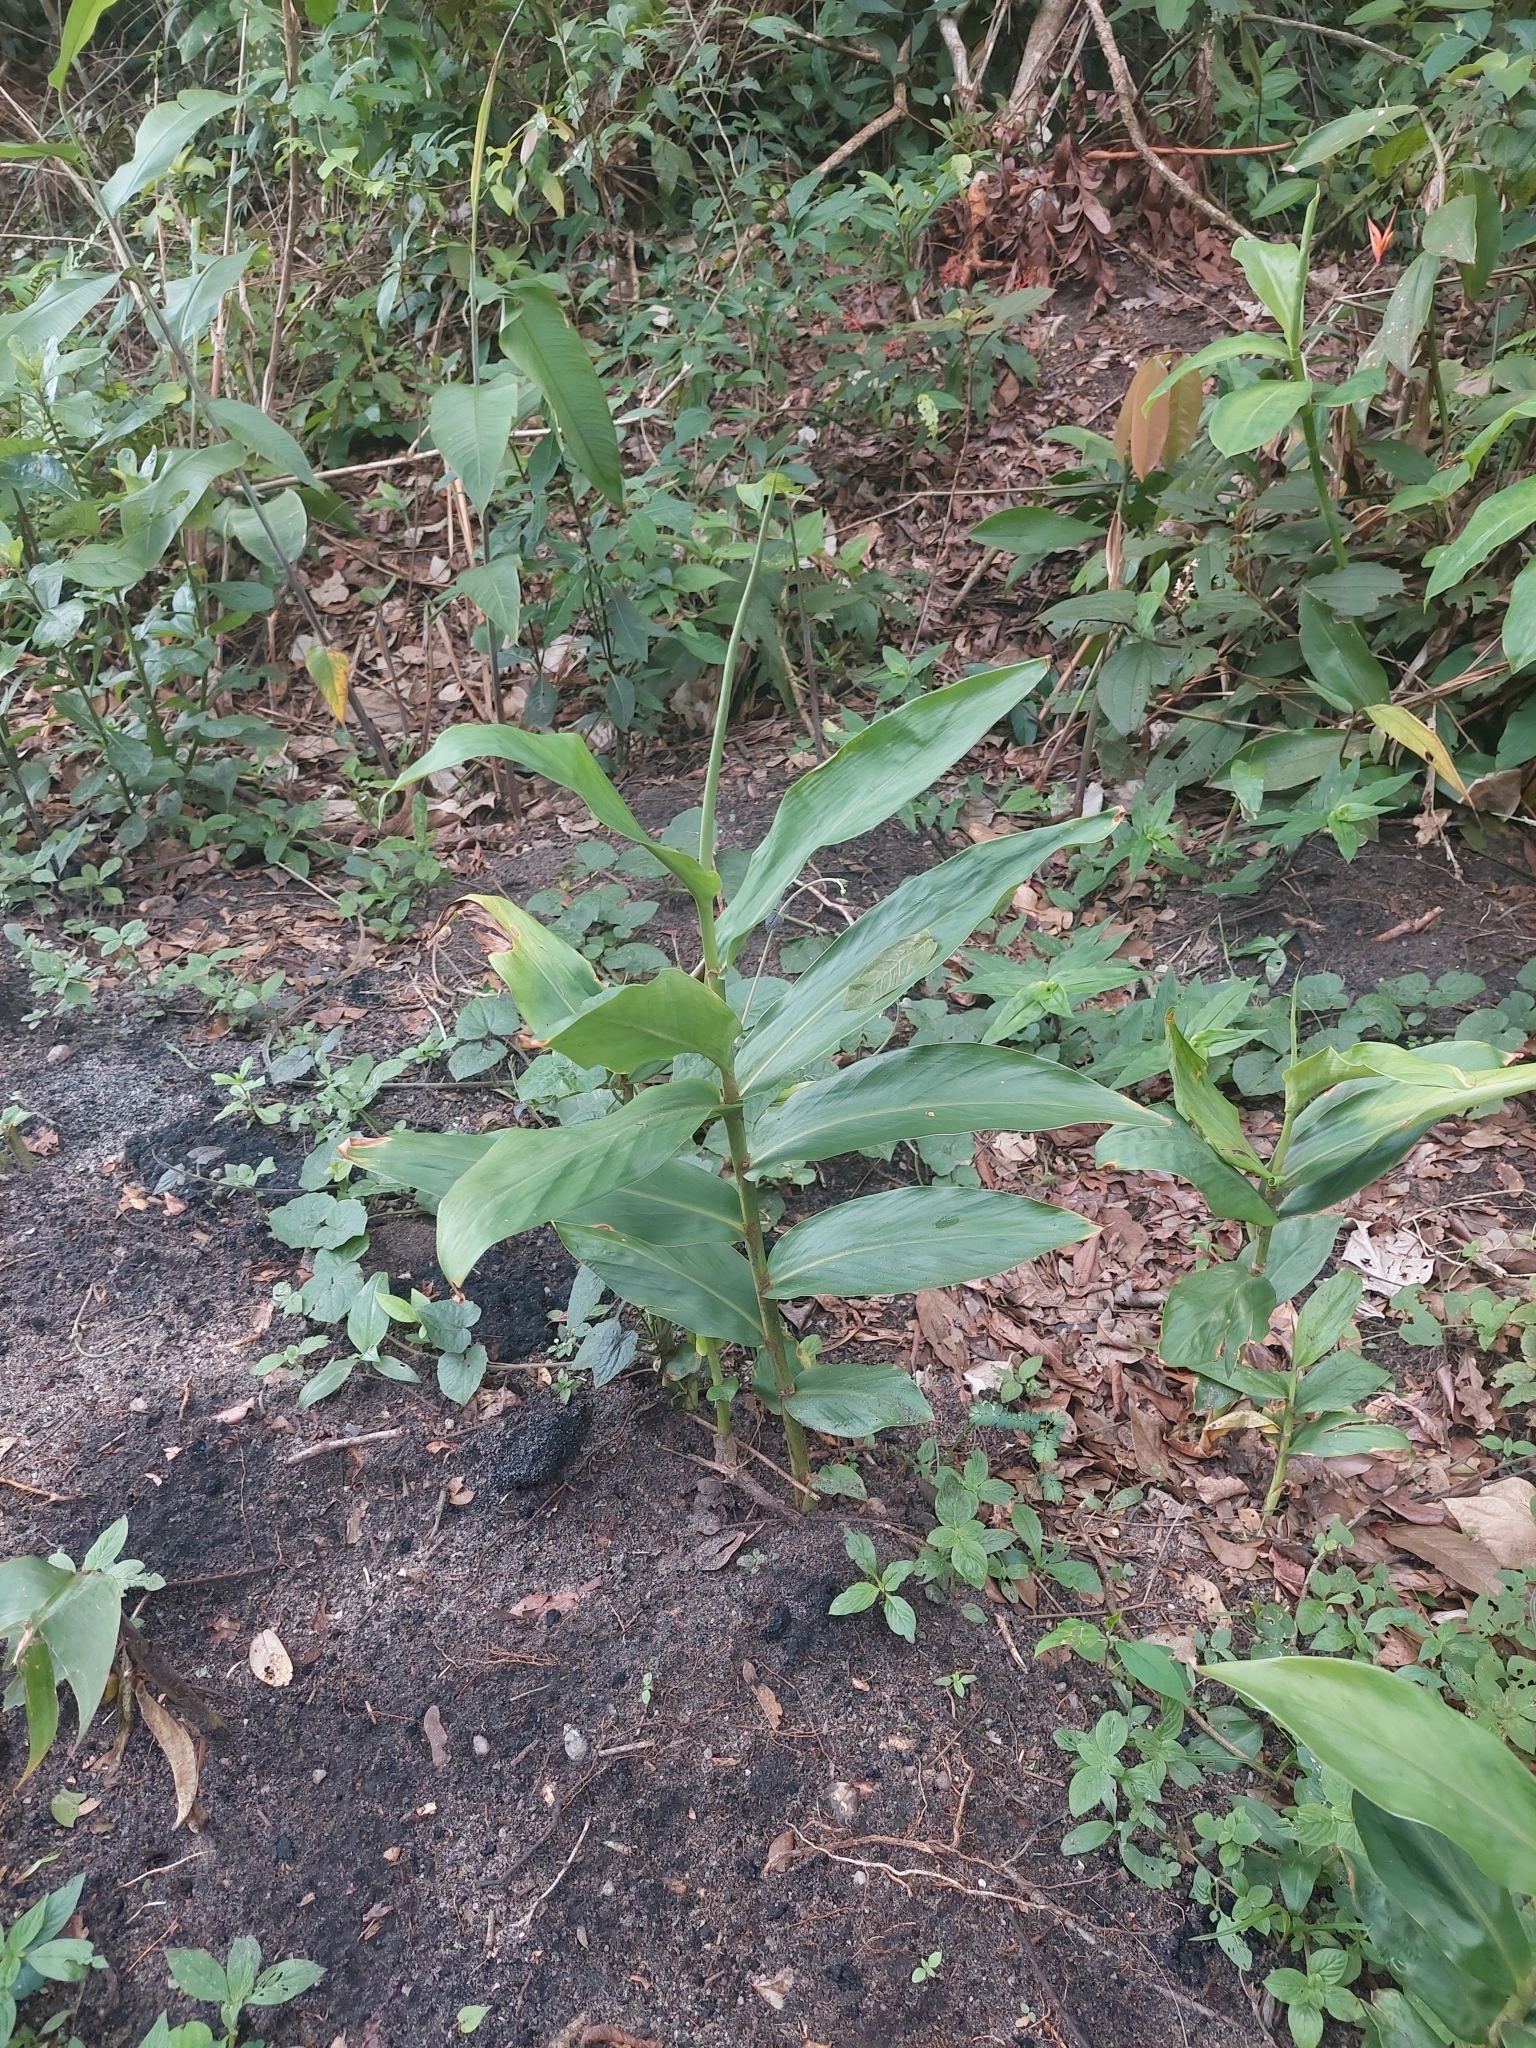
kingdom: Plantae
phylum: Tracheophyta
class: Liliopsida
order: Zingiberales
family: Zingiberaceae
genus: Hedychium
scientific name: Hedychium coronarium
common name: White garland-lily
